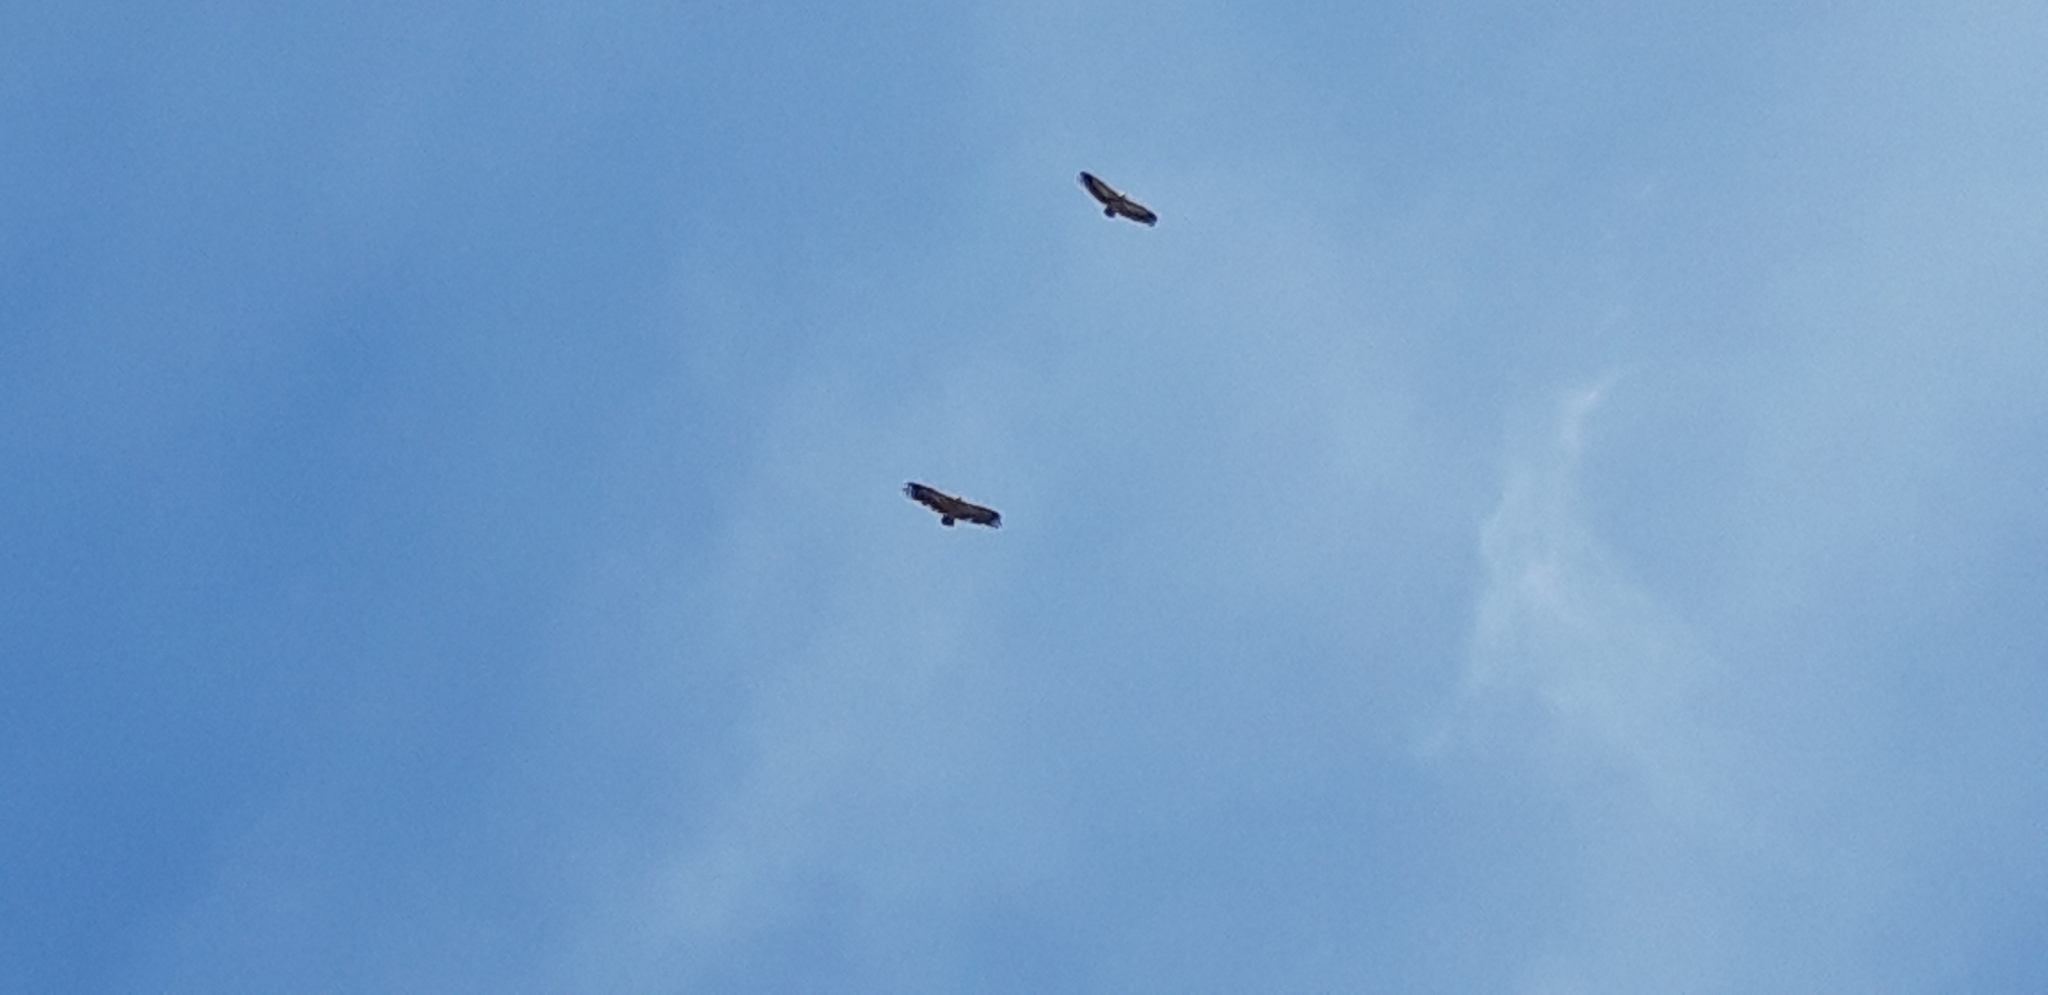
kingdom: Animalia
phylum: Chordata
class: Aves
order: Accipitriformes
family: Accipitridae
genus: Gyps
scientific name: Gyps fulvus
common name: Griffon vulture
